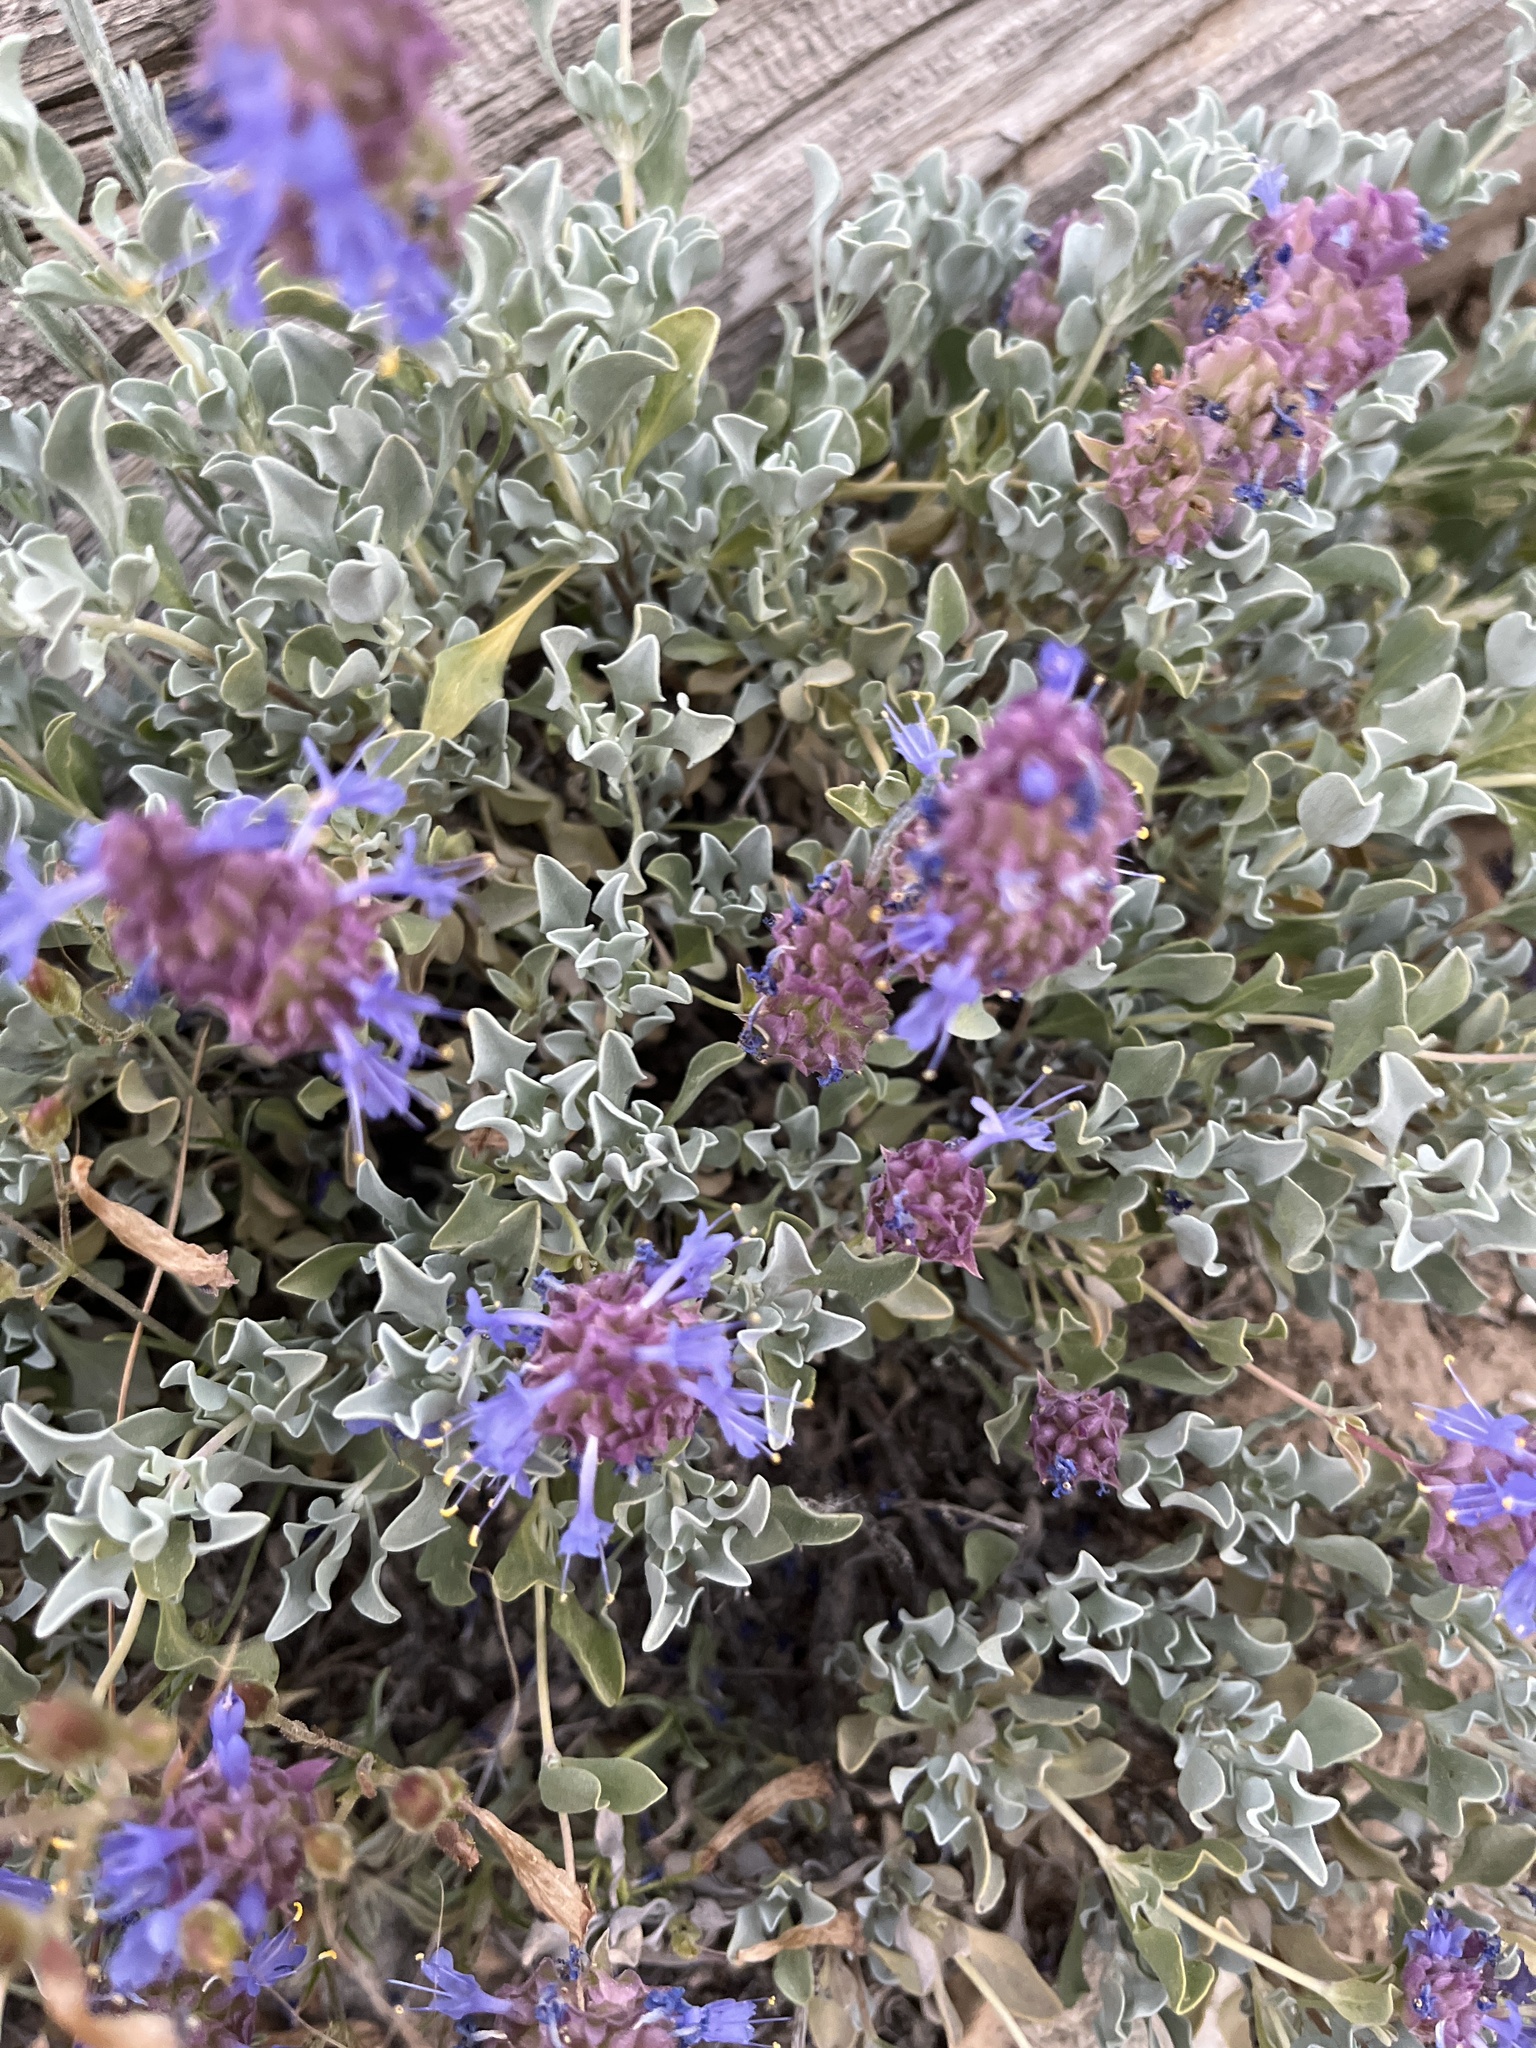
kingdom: Plantae
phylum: Tracheophyta
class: Magnoliopsida
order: Lamiales
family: Lamiaceae
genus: Salvia
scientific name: Salvia dorrii
